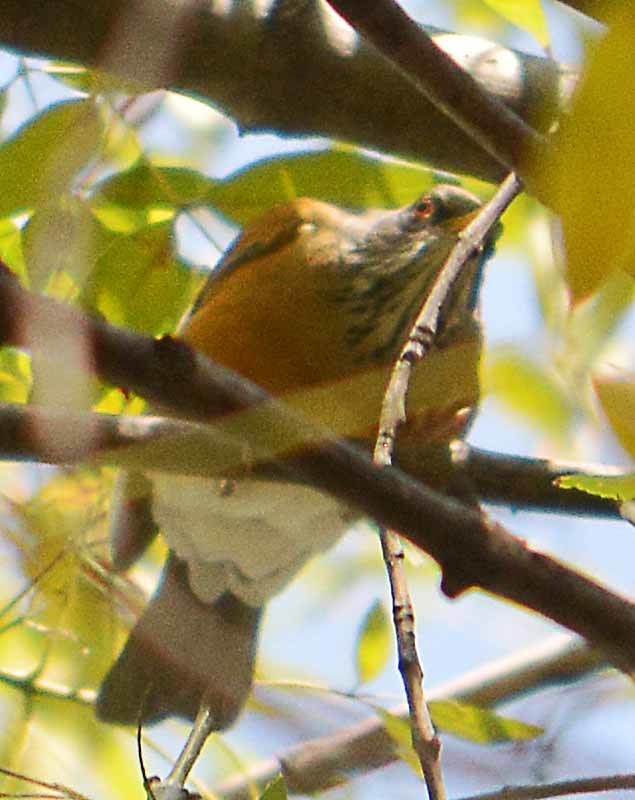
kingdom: Animalia
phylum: Chordata
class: Aves
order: Passeriformes
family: Turdidae
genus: Turdus
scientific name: Turdus rufopalliatus
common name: Rufous-backed robin
